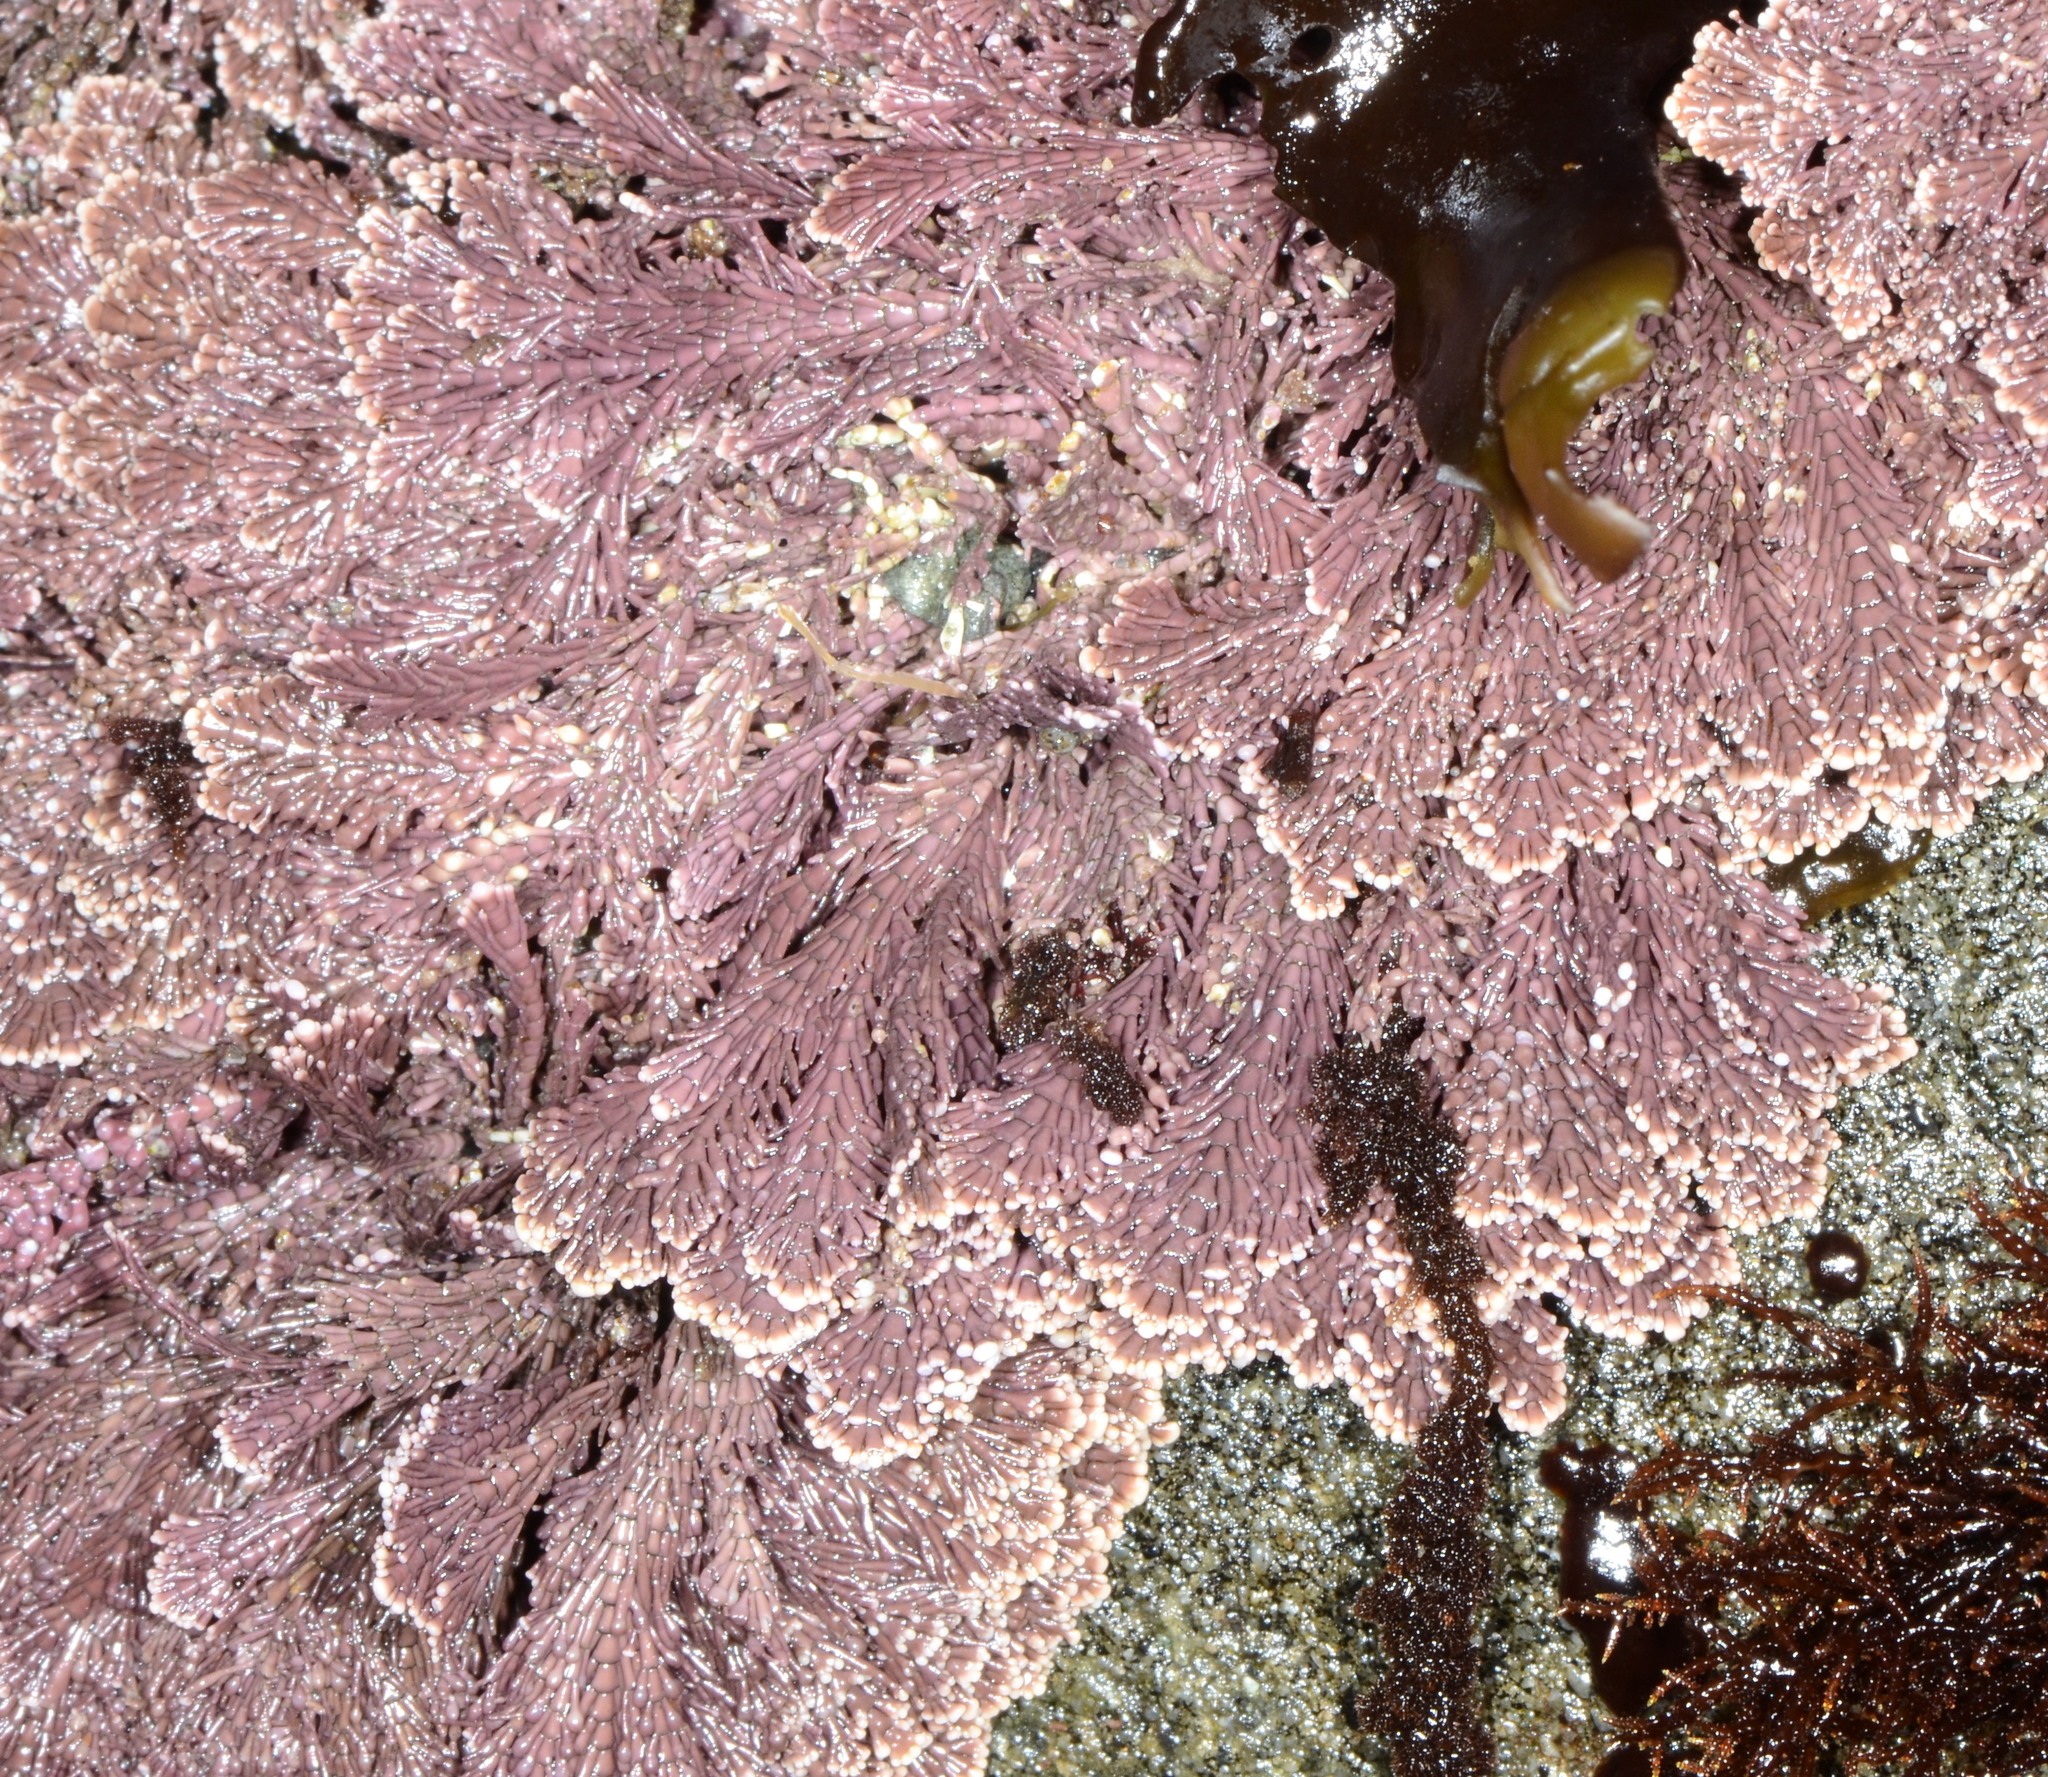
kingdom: Plantae
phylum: Rhodophyta
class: Florideophyceae
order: Corallinales
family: Corallinaceae
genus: Corallina
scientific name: Corallina vancouveriensis
